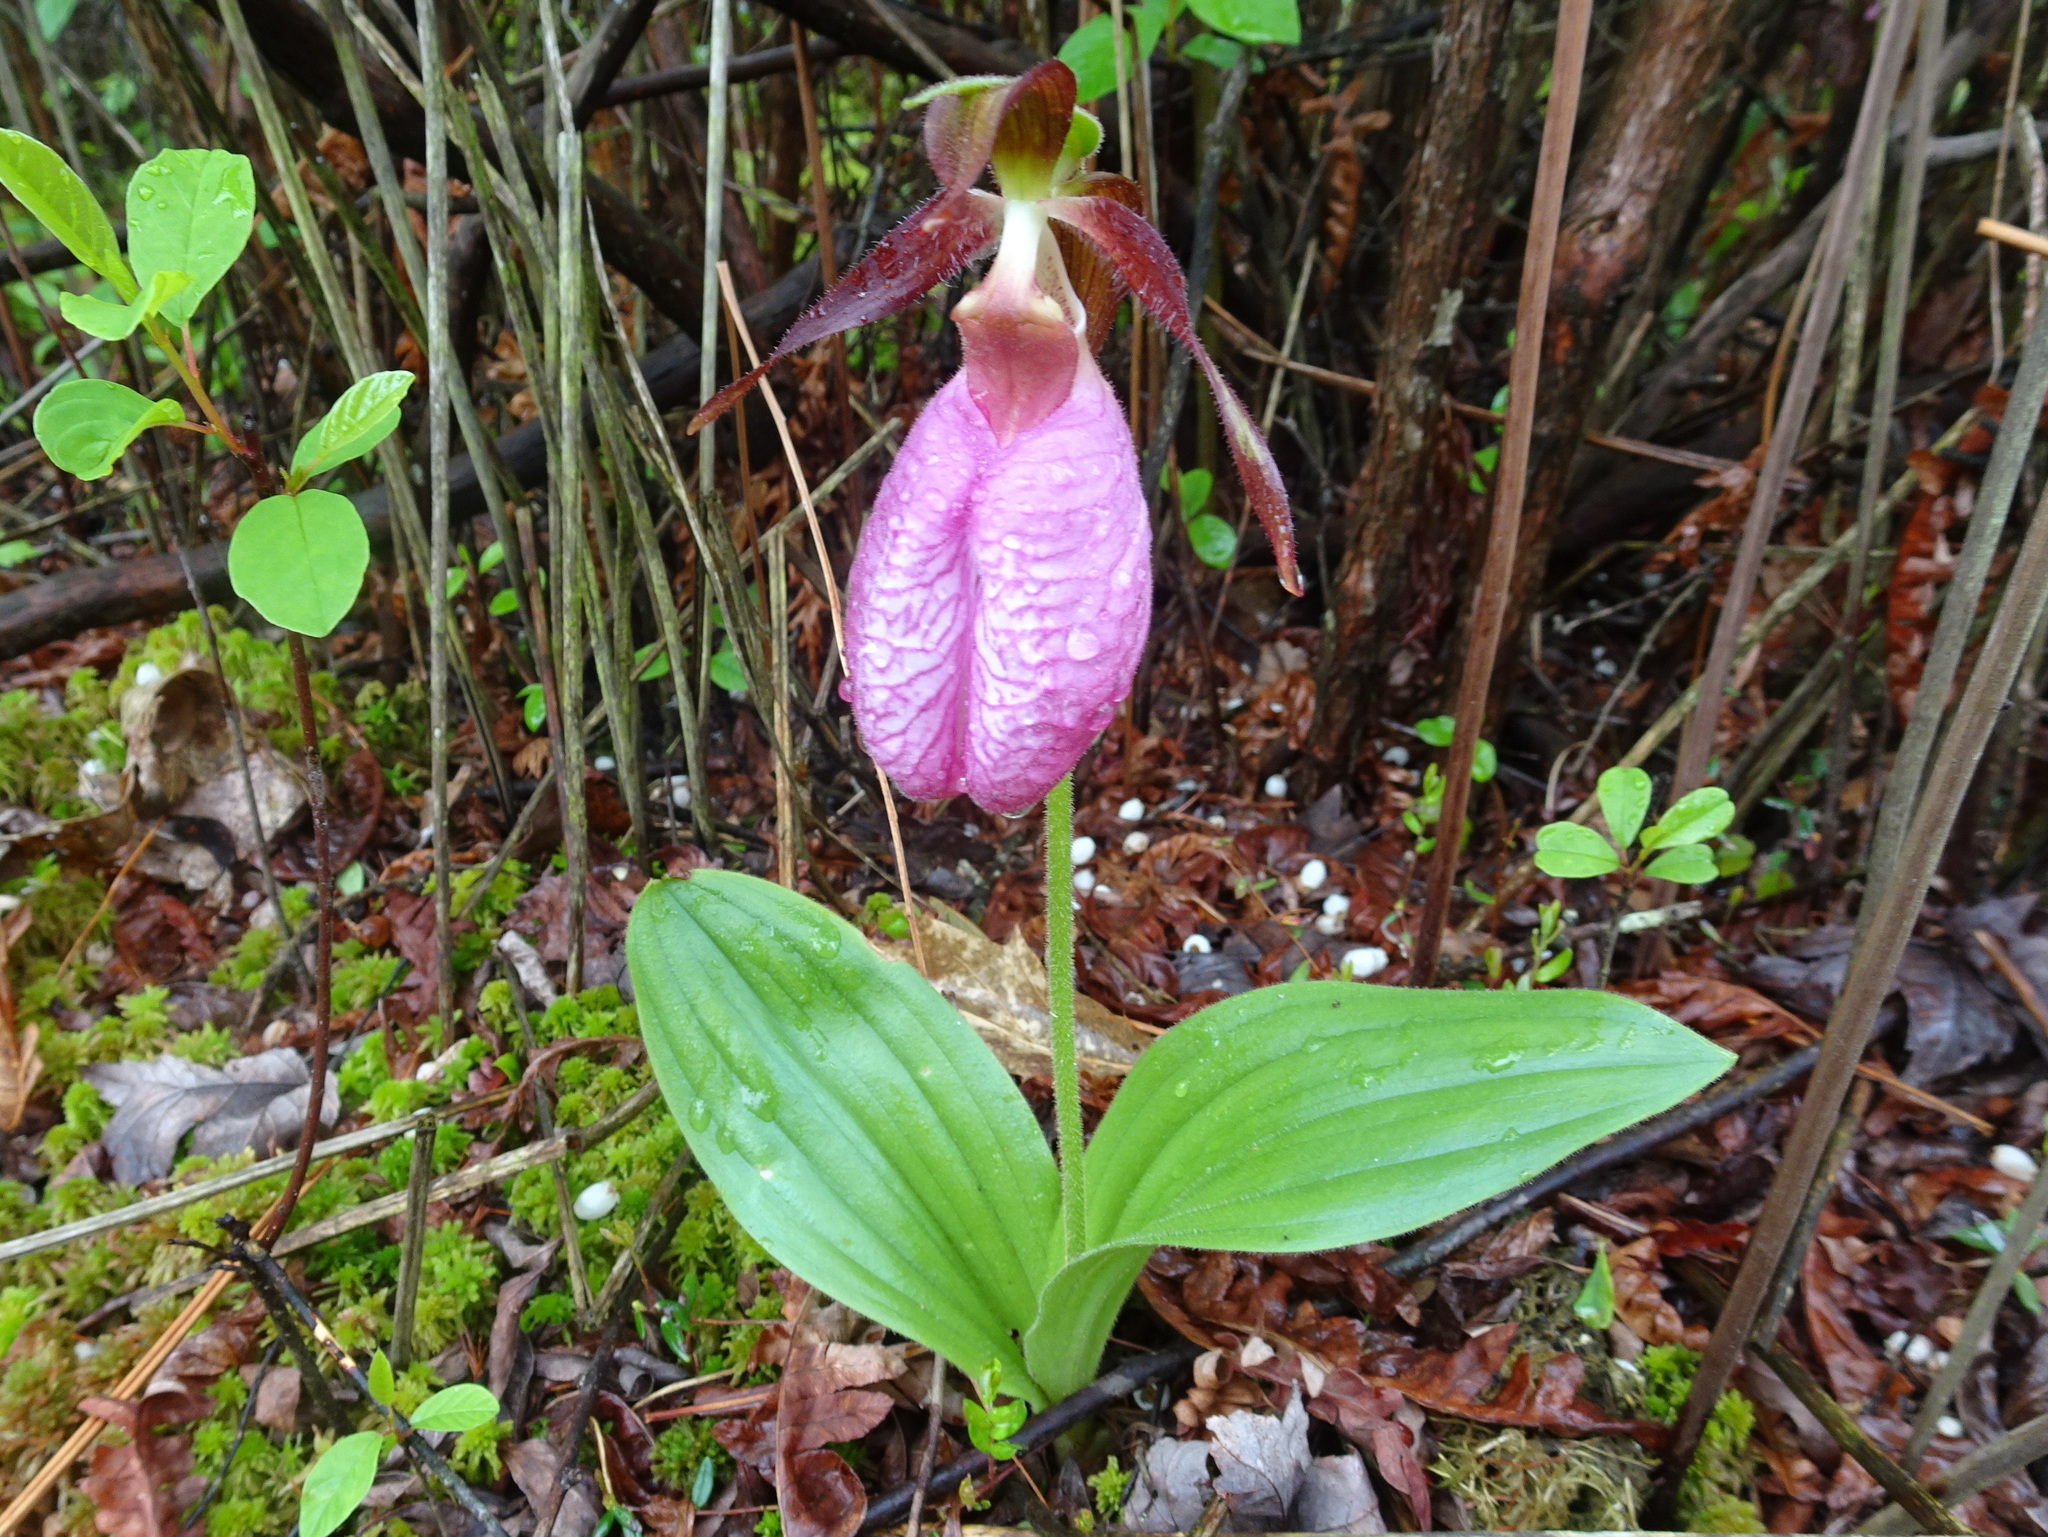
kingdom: Plantae
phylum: Tracheophyta
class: Liliopsida
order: Asparagales
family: Orchidaceae
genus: Cypripedium
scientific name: Cypripedium acaule
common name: Pink lady's-slipper
